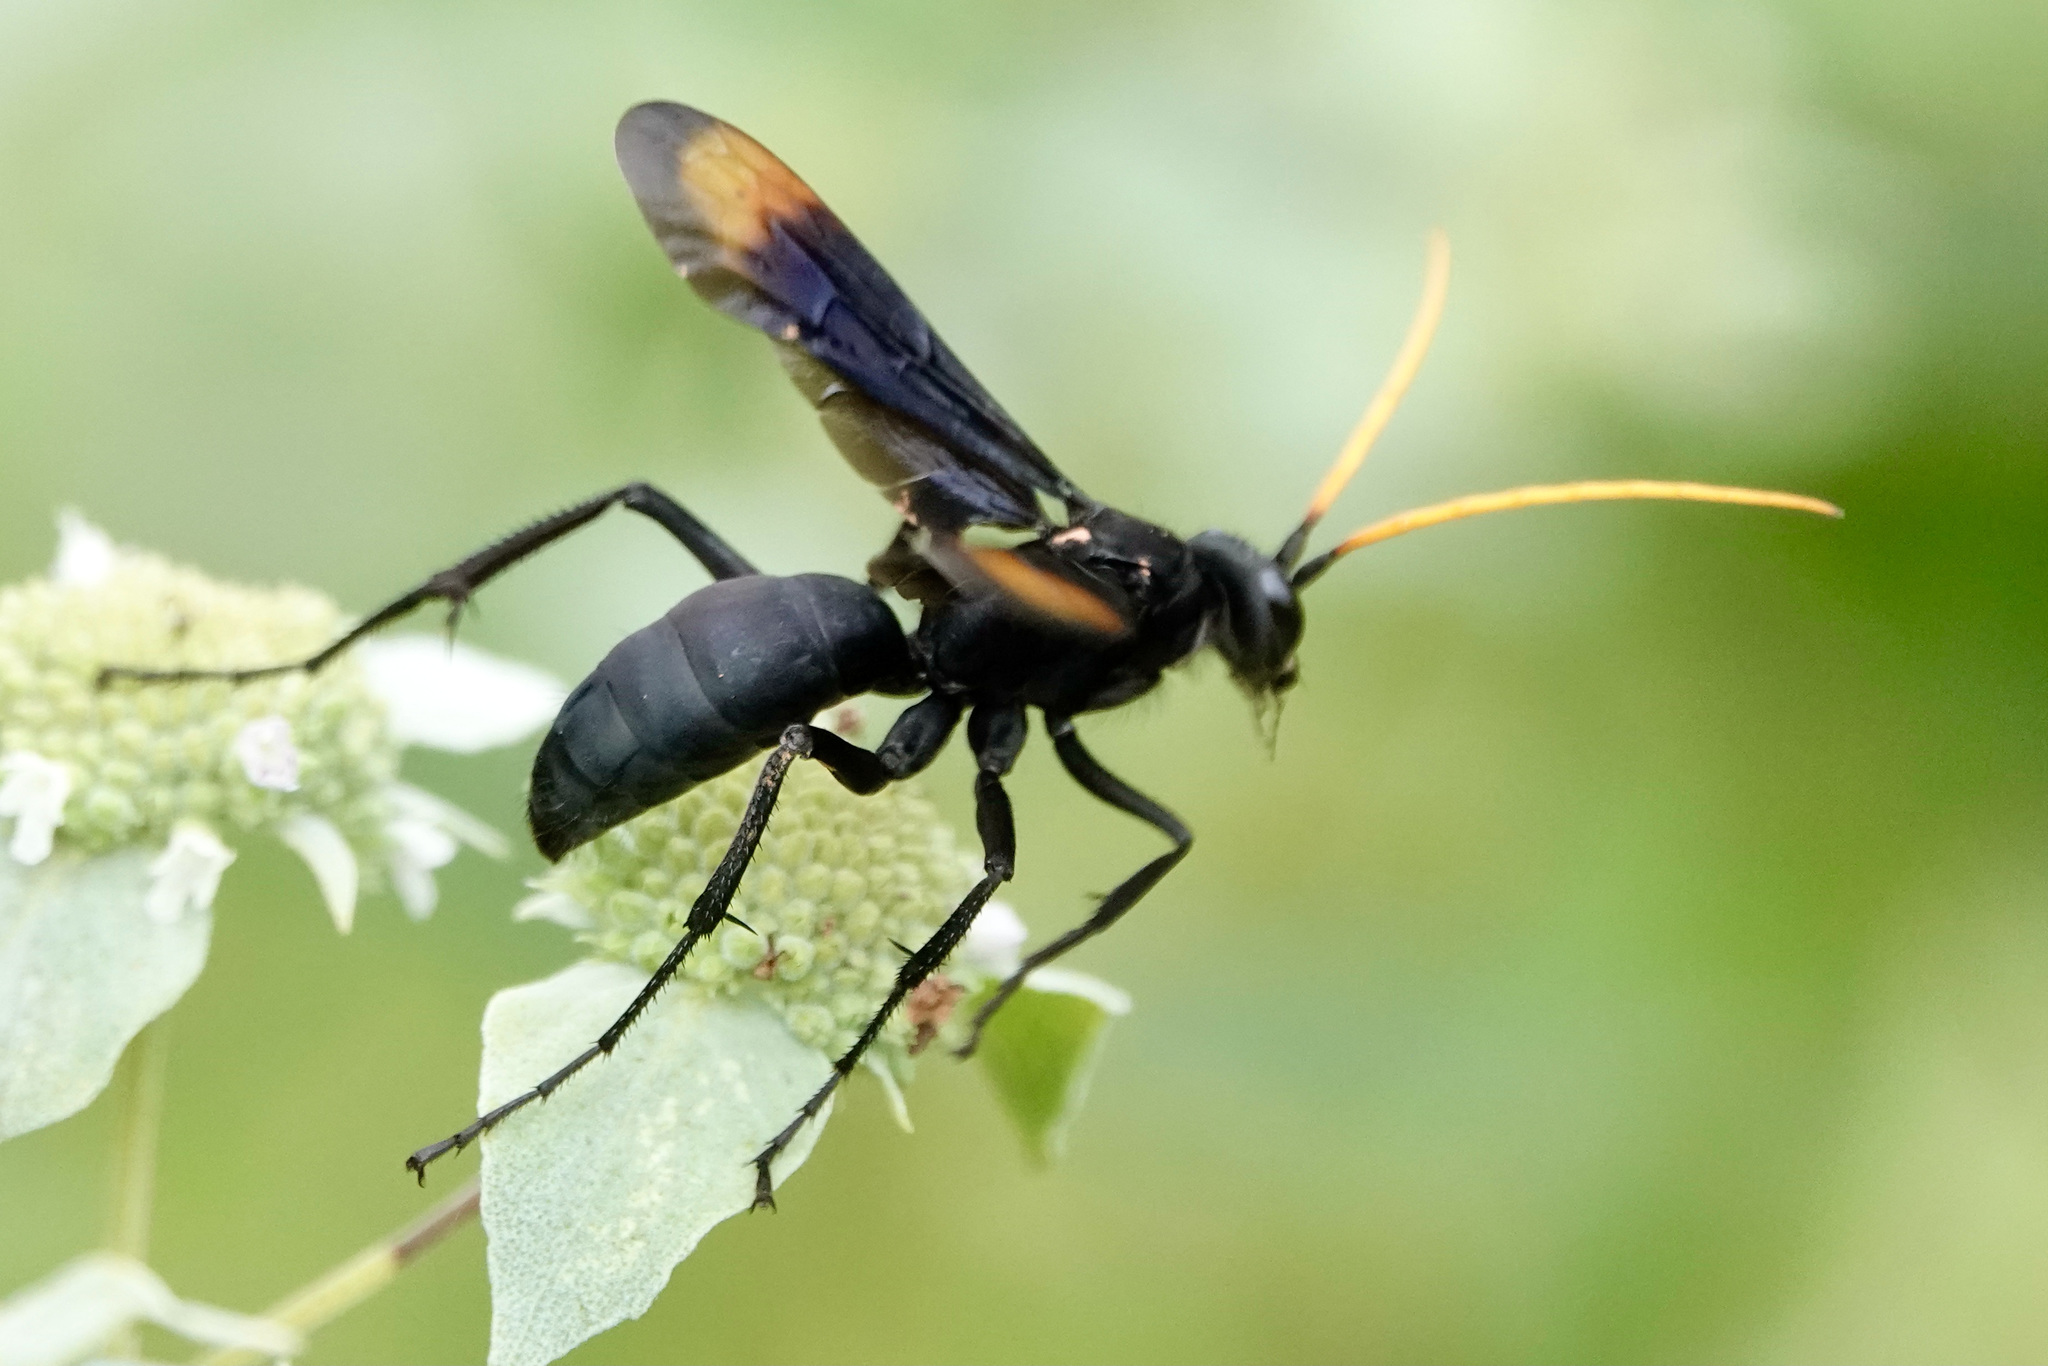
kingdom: Animalia
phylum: Arthropoda
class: Insecta
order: Hymenoptera
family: Pompilidae
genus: Entypus
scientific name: Entypus unifasciatus
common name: Eastern tawny-horned spider wasp
